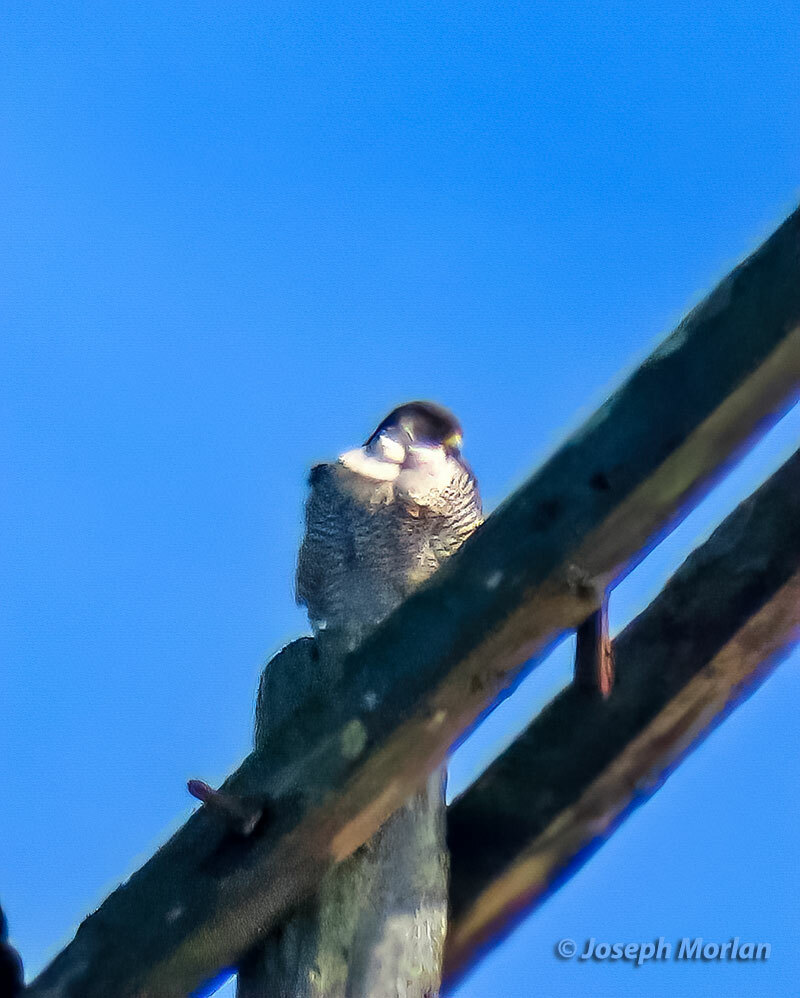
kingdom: Animalia
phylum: Chordata
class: Aves
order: Falconiformes
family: Falconidae
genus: Falco
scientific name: Falco peregrinus
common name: Peregrine falcon
